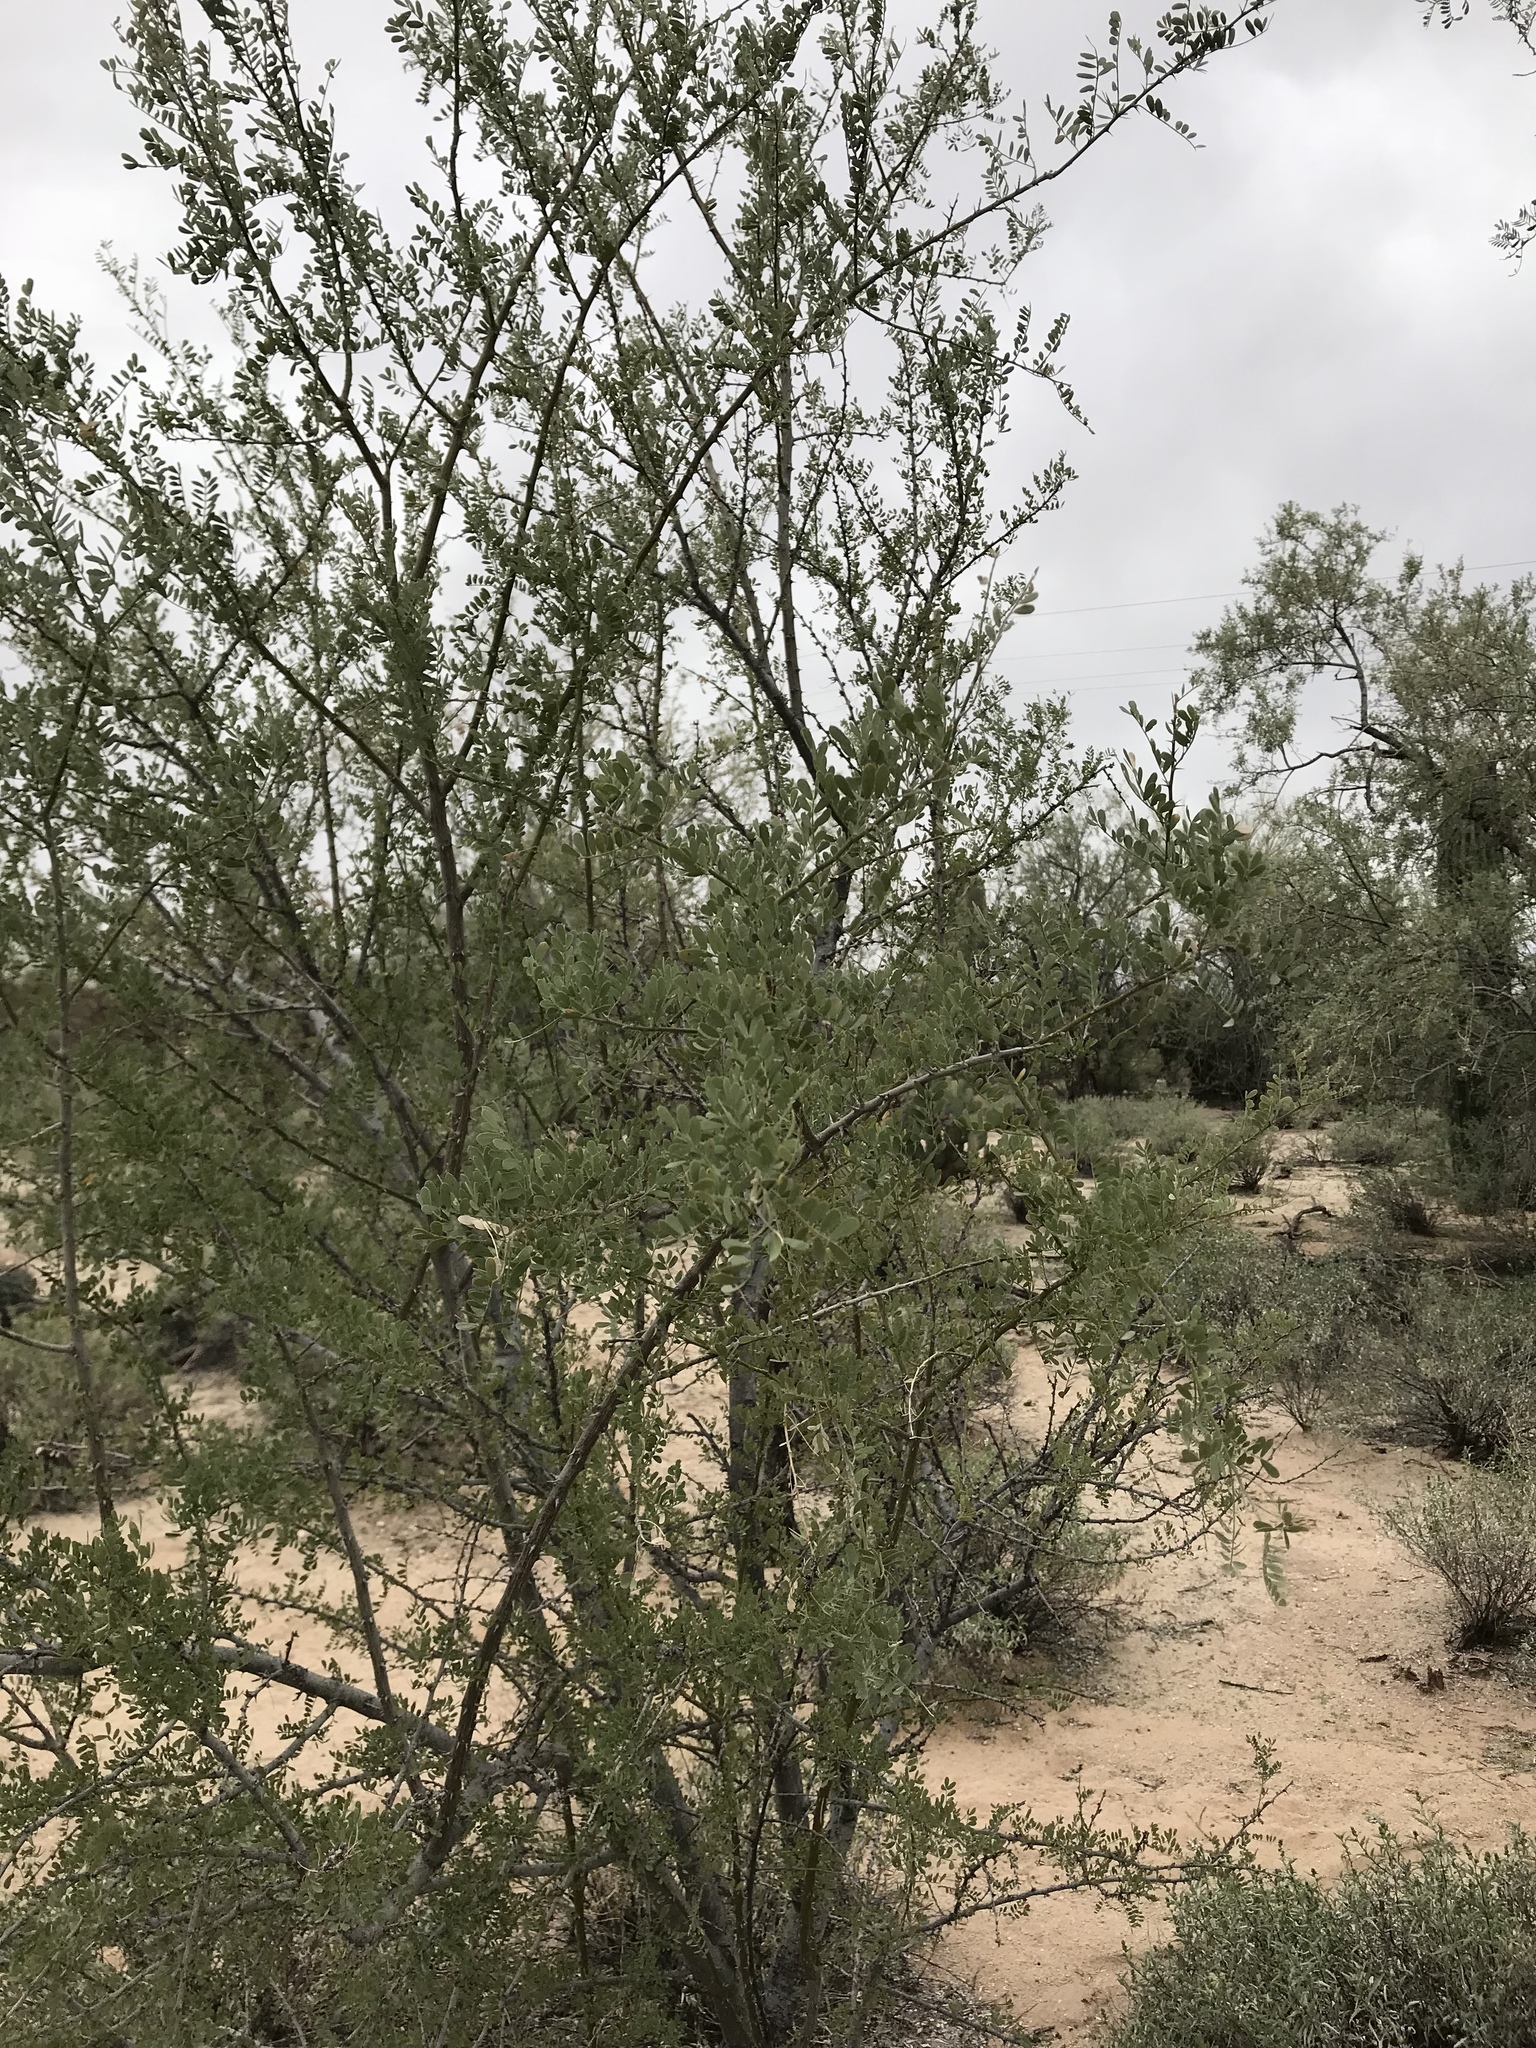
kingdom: Plantae
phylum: Tracheophyta
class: Magnoliopsida
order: Fabales
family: Fabaceae
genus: Olneya
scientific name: Olneya tesota
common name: Desert ironwood
